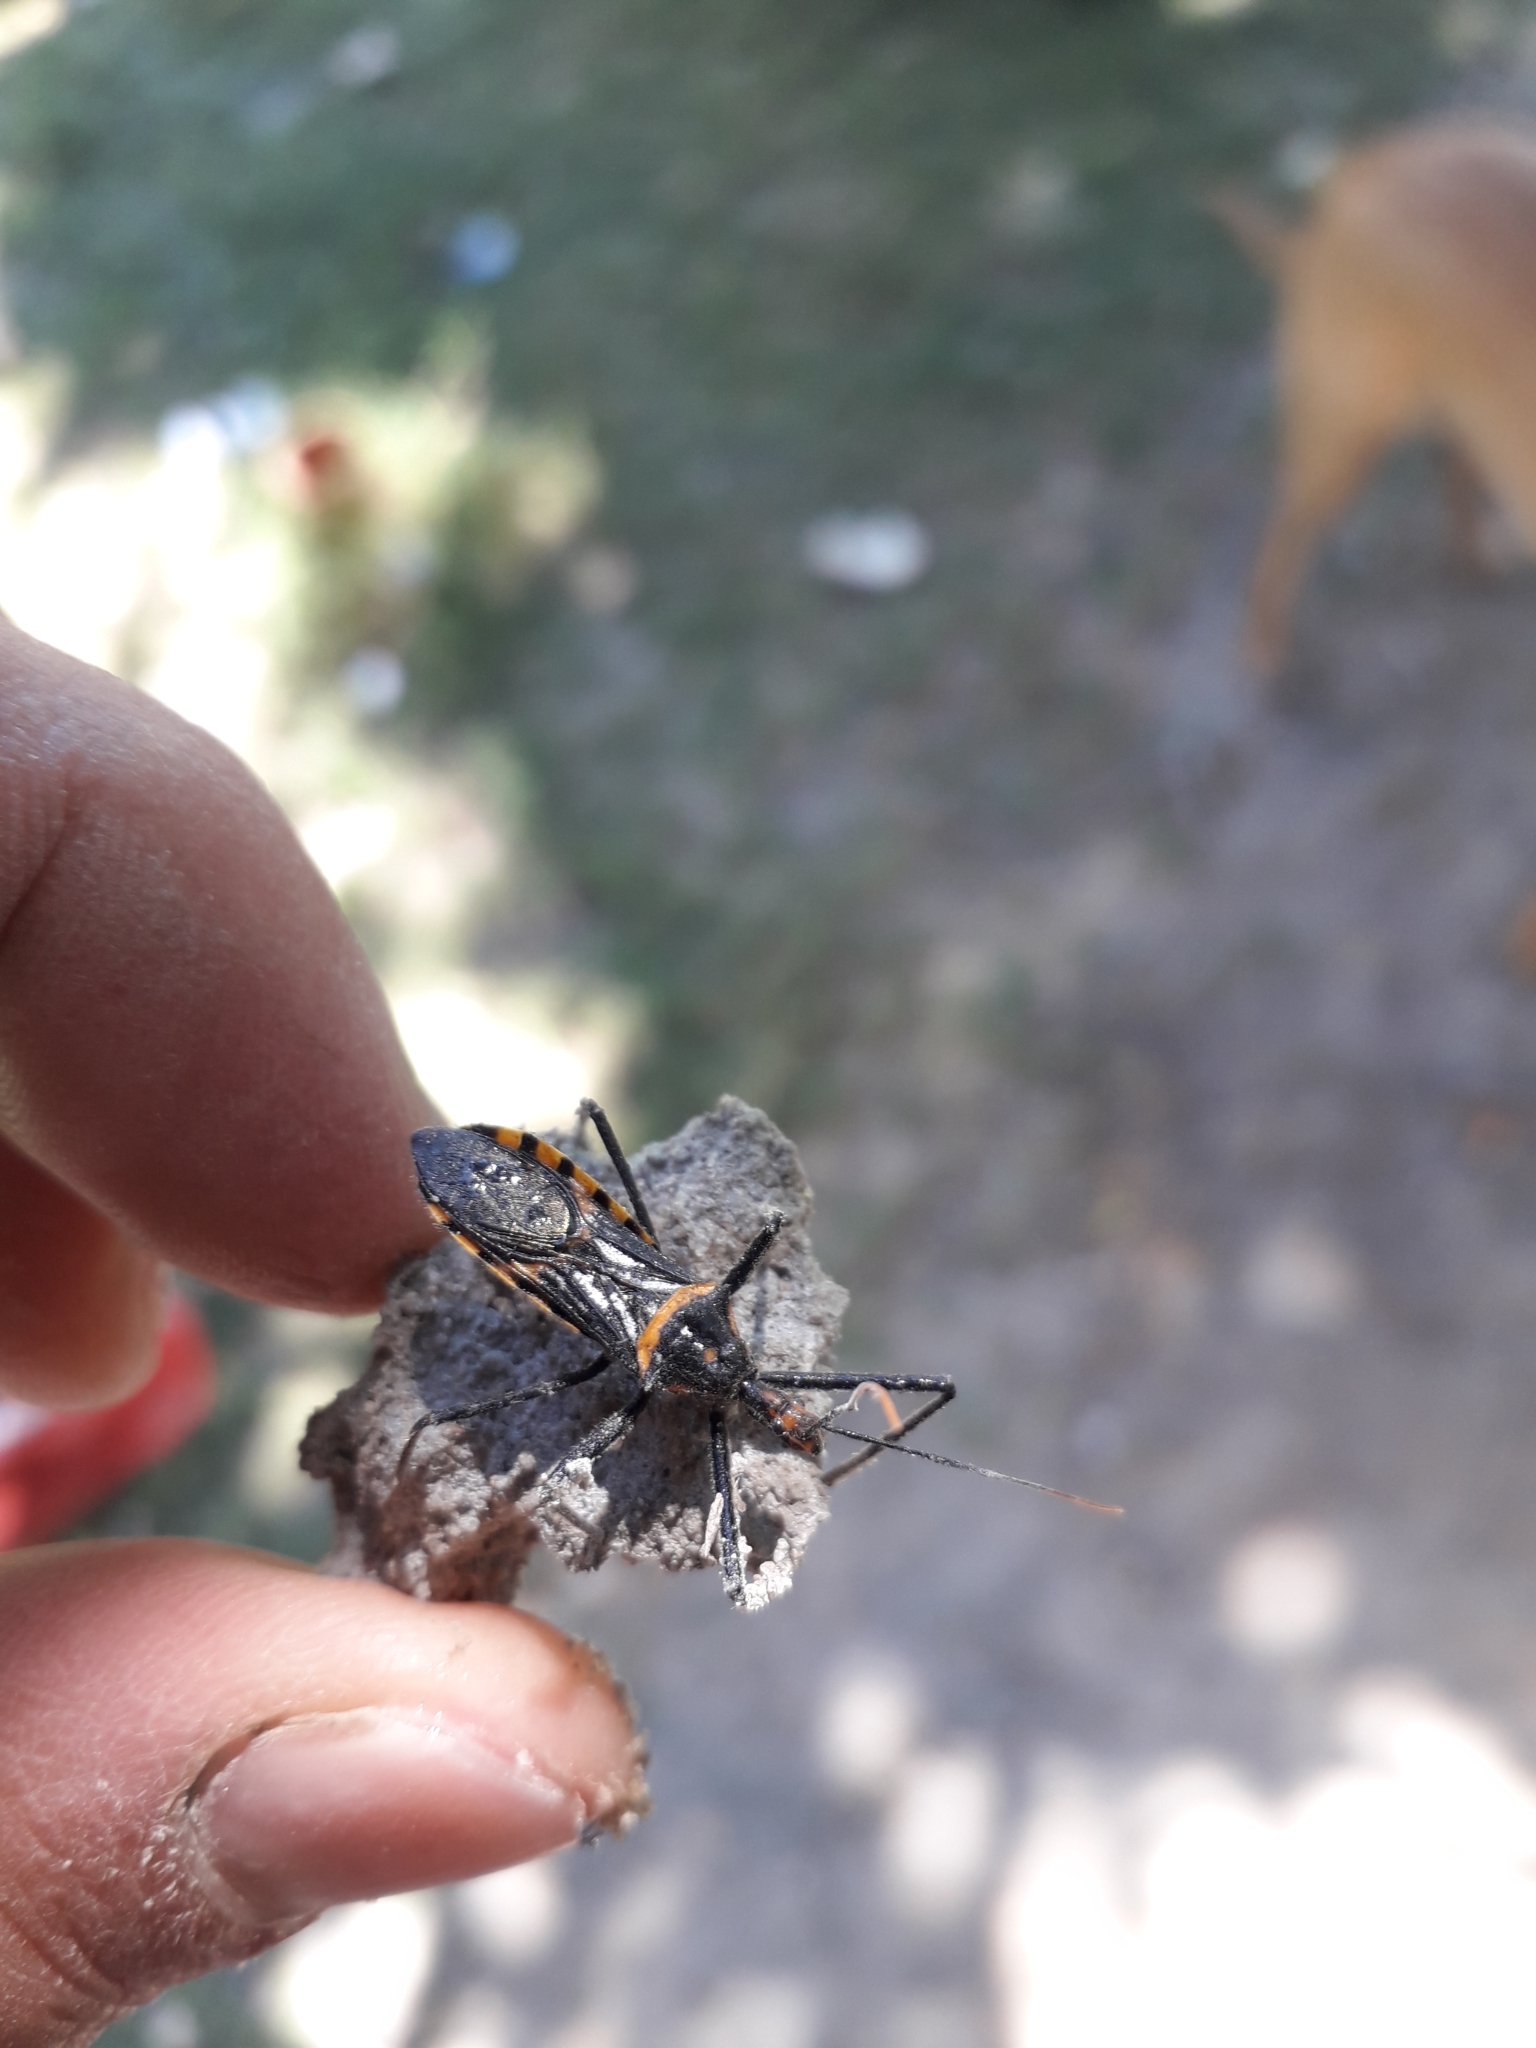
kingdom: Animalia
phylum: Arthropoda
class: Insecta
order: Hemiptera
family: Reduviidae
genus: Zelus
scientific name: Zelus leucogrammus
